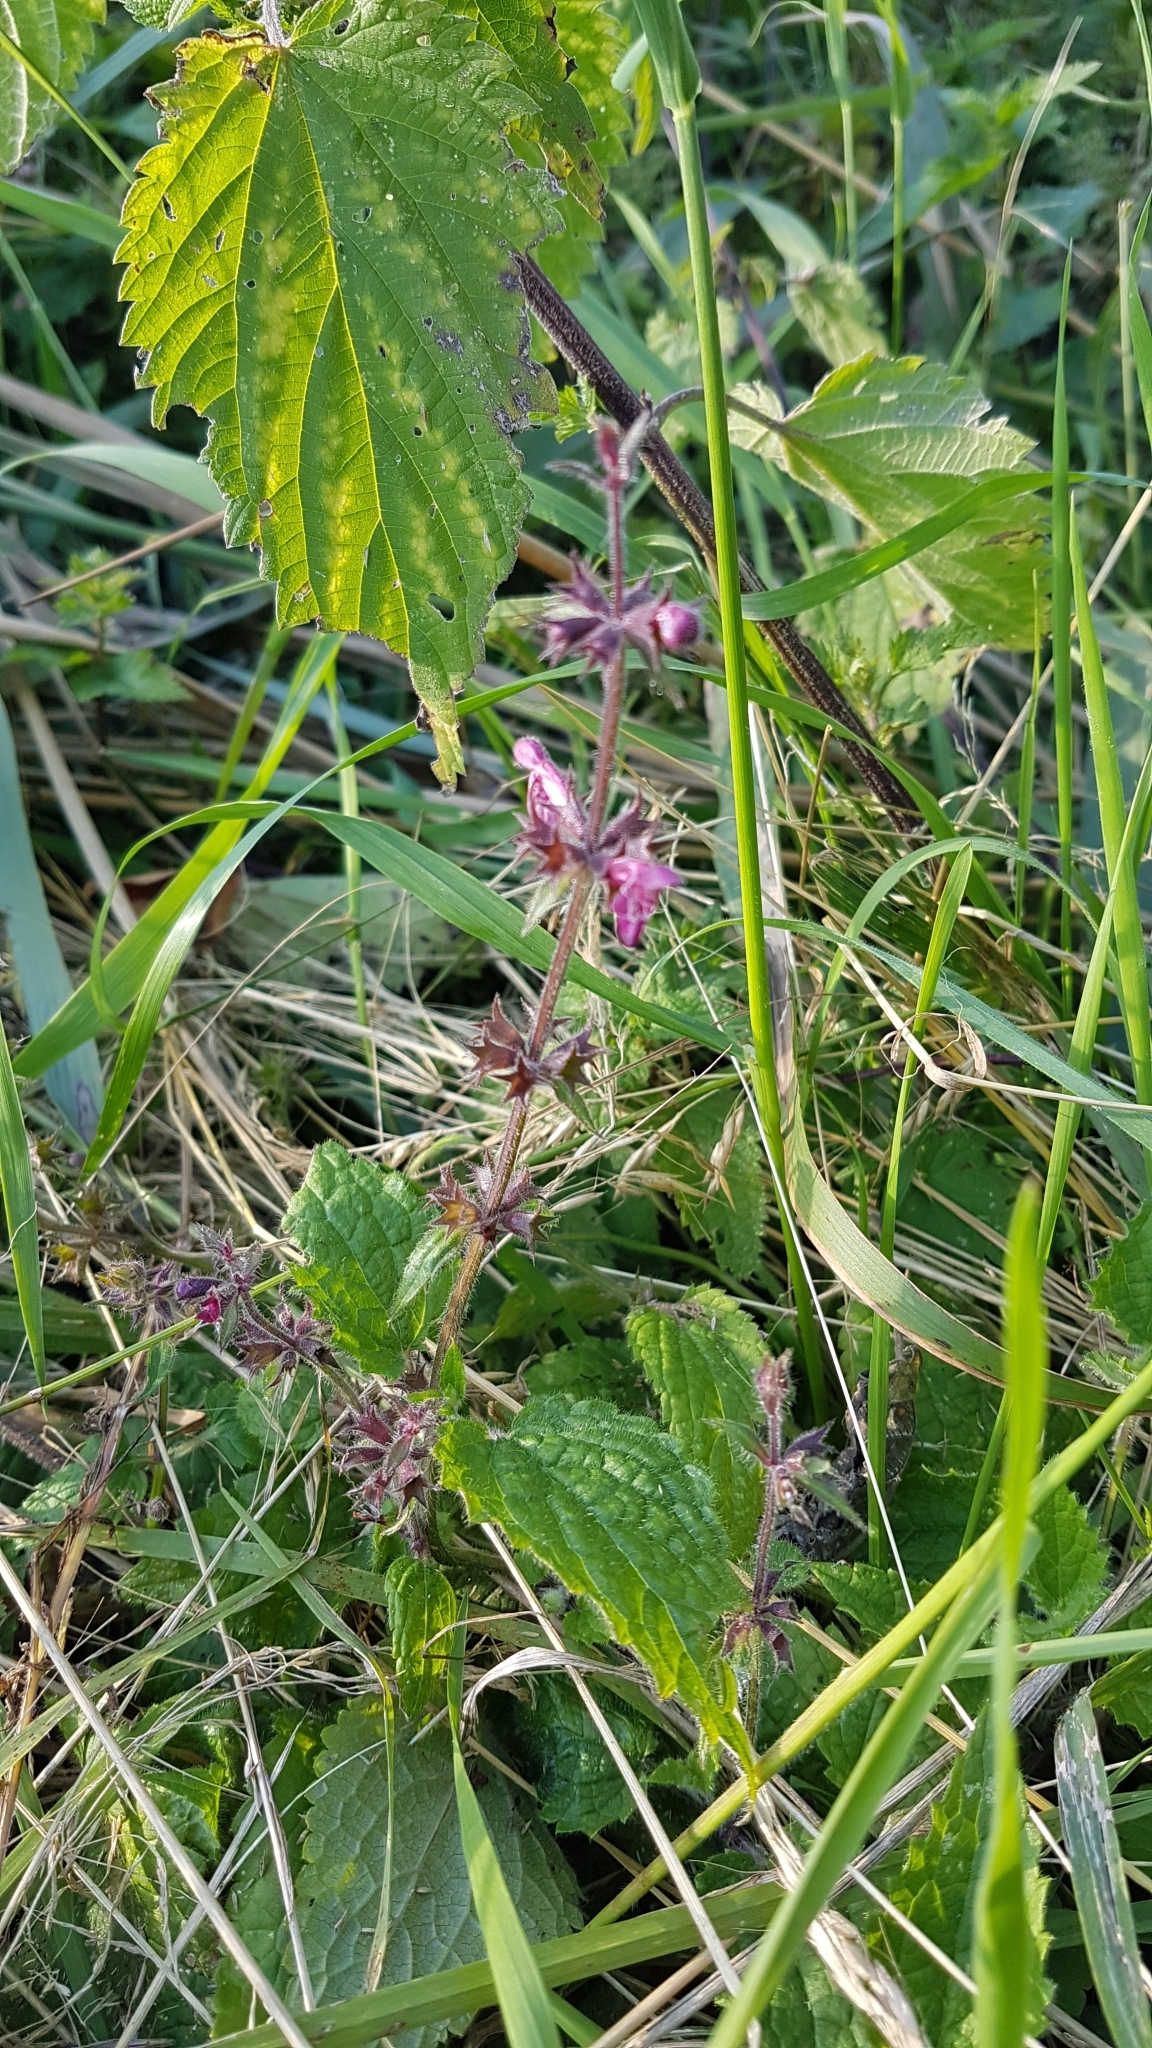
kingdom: Plantae
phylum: Tracheophyta
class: Magnoliopsida
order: Lamiales
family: Lamiaceae
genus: Stachys
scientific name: Stachys sylvatica
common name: Hedge woundwort
